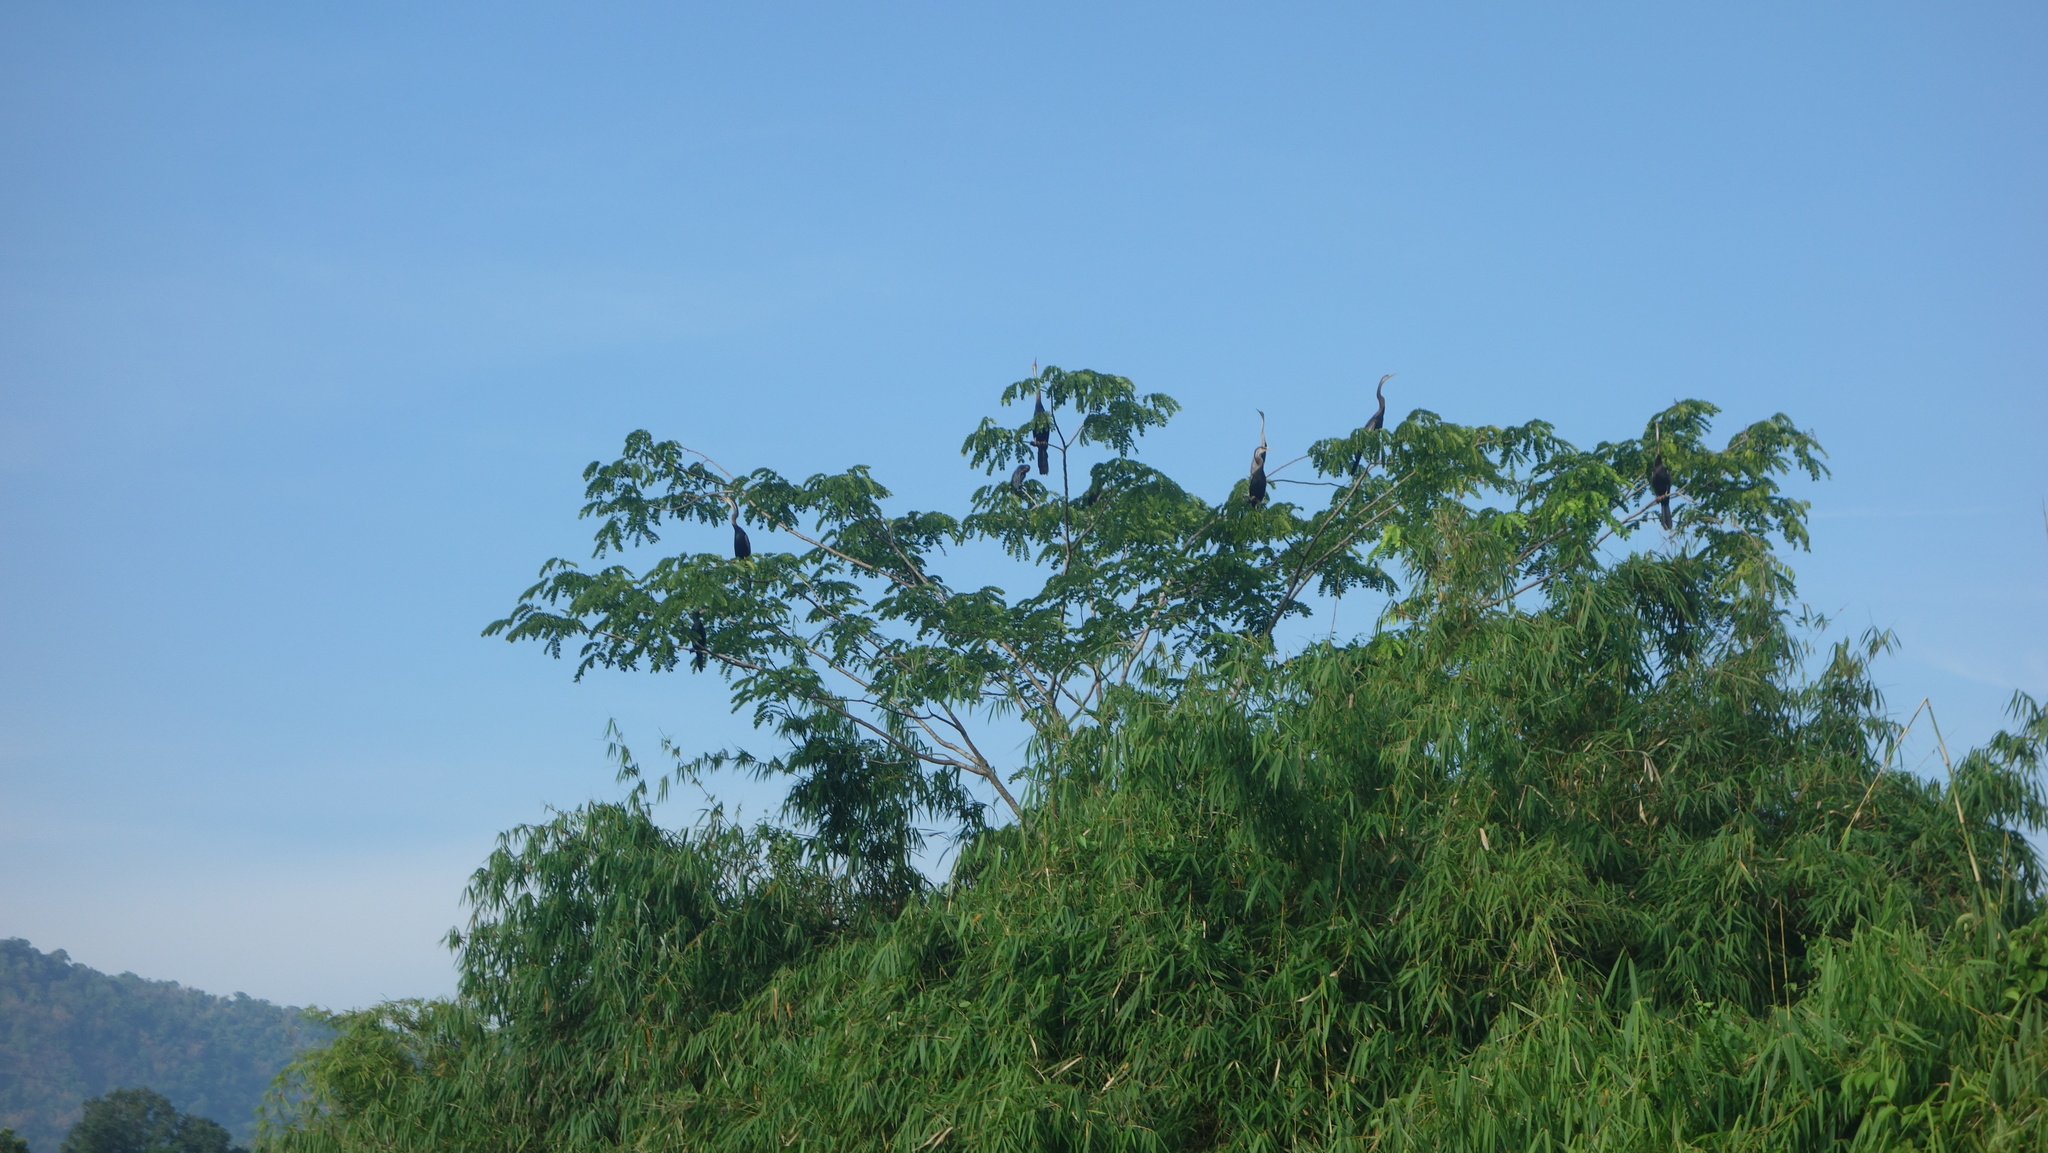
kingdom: Animalia
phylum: Chordata
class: Aves
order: Suliformes
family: Anhingidae
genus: Anhinga
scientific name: Anhinga melanogaster
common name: Oriental darter
